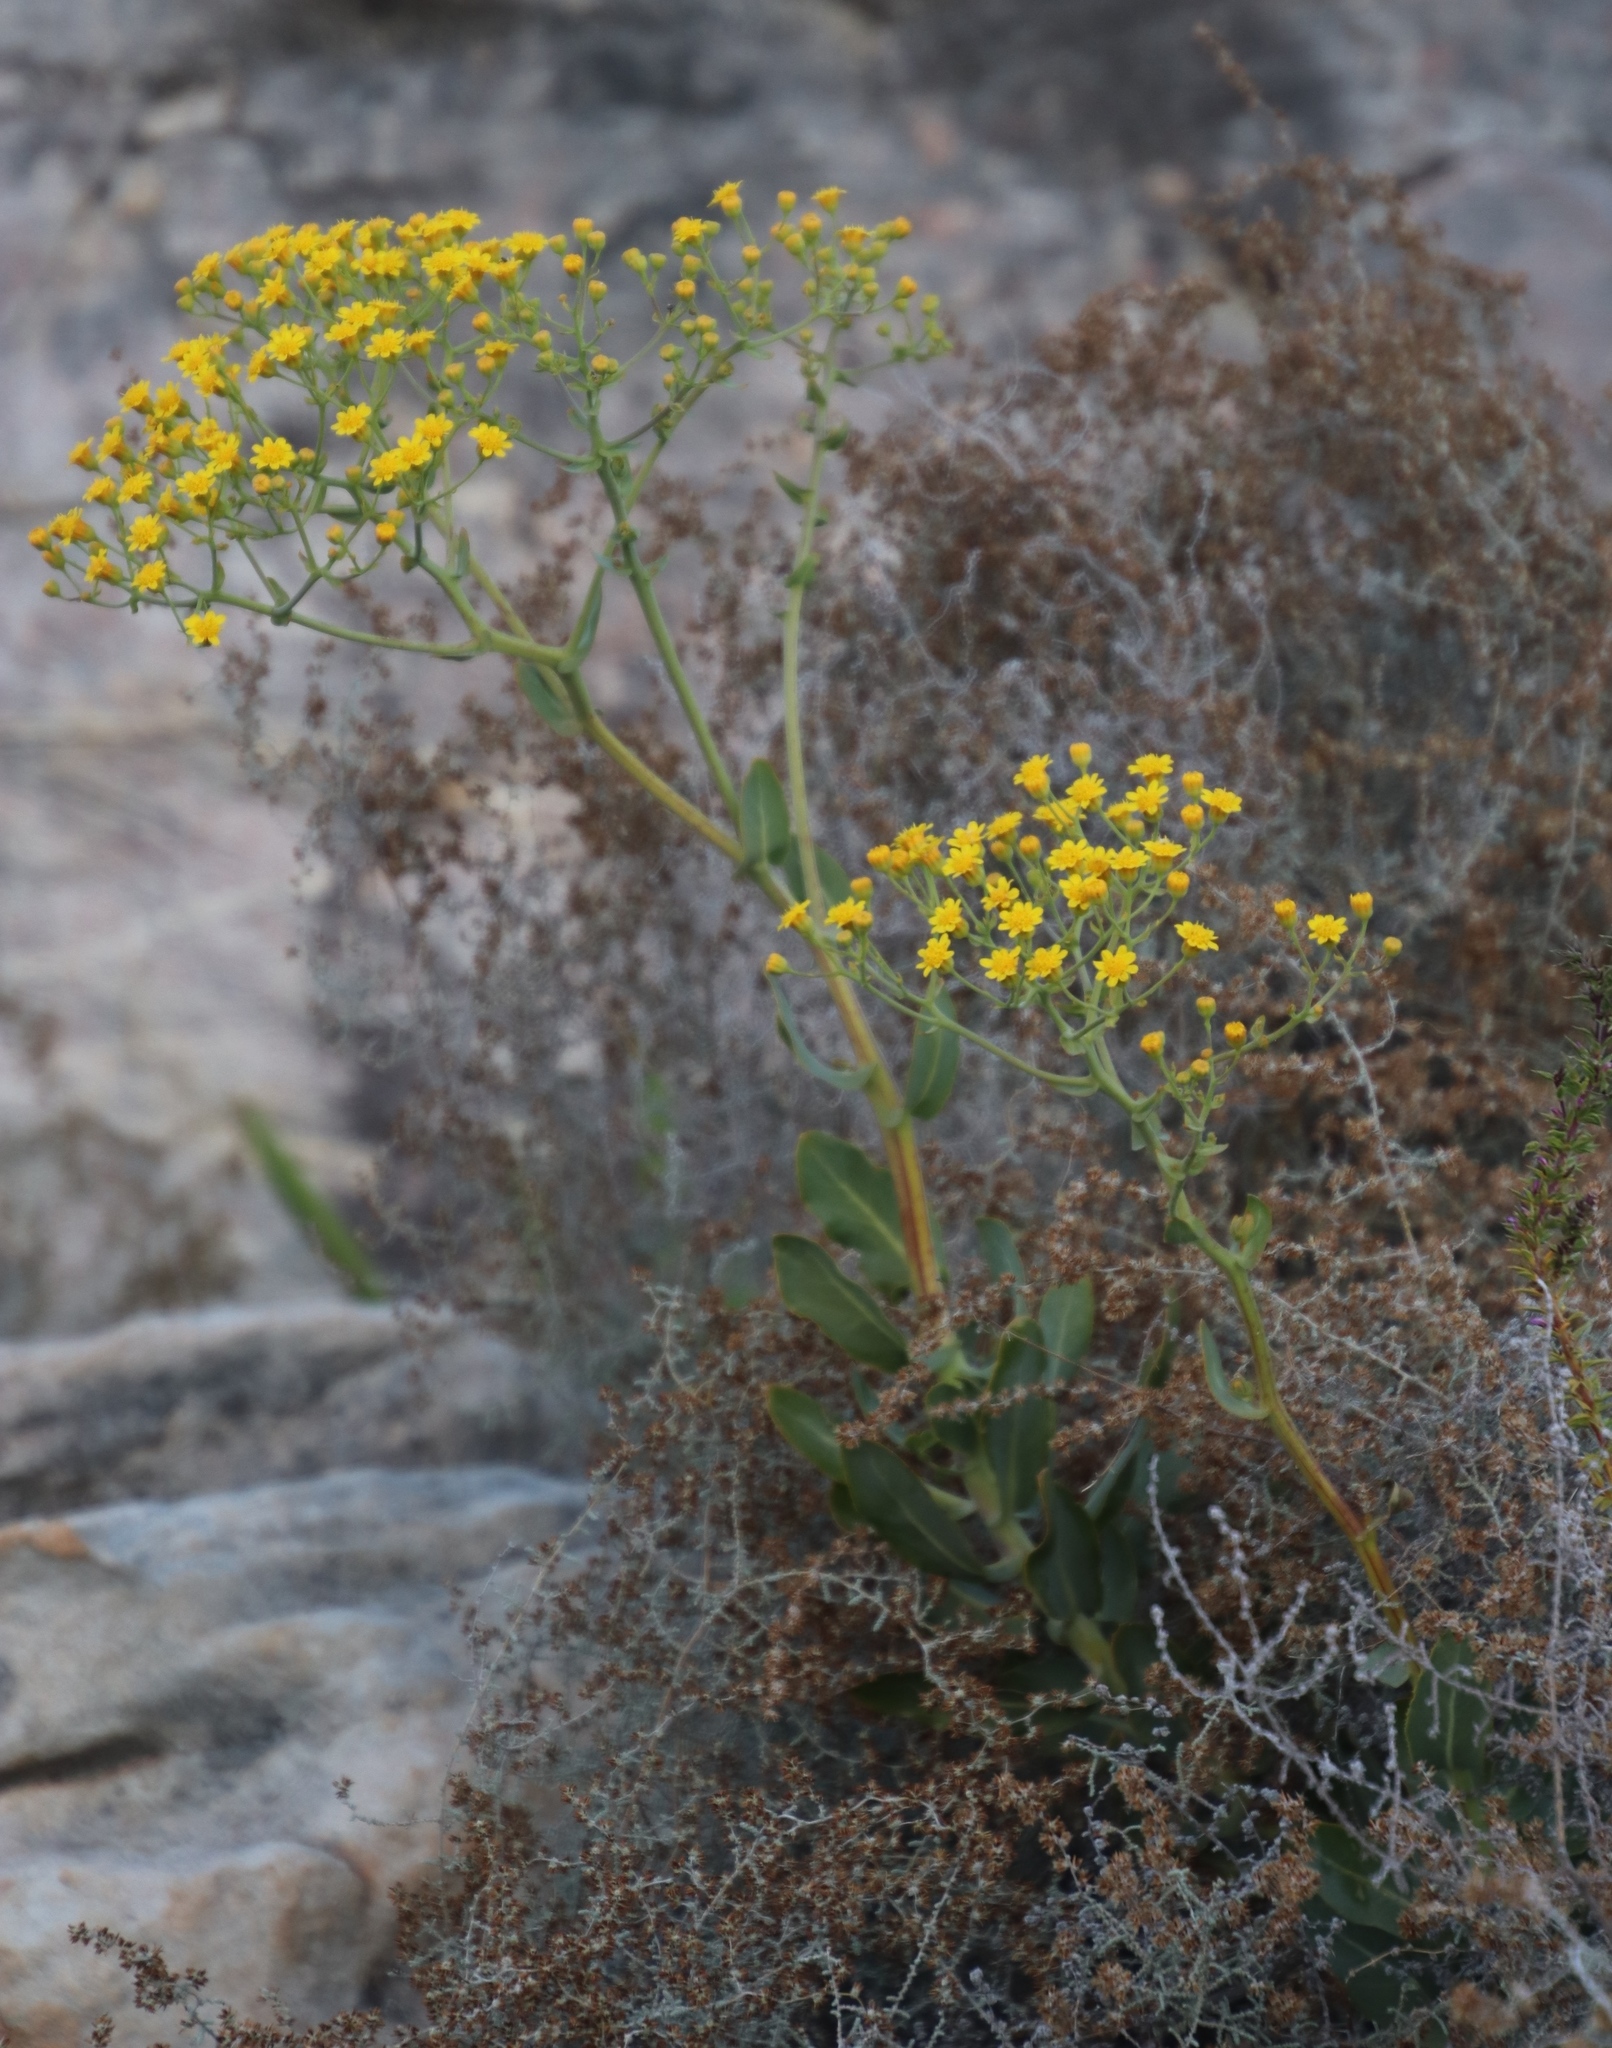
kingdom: Plantae
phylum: Tracheophyta
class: Magnoliopsida
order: Asterales
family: Asteraceae
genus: Othonna
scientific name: Othonna parviflora
